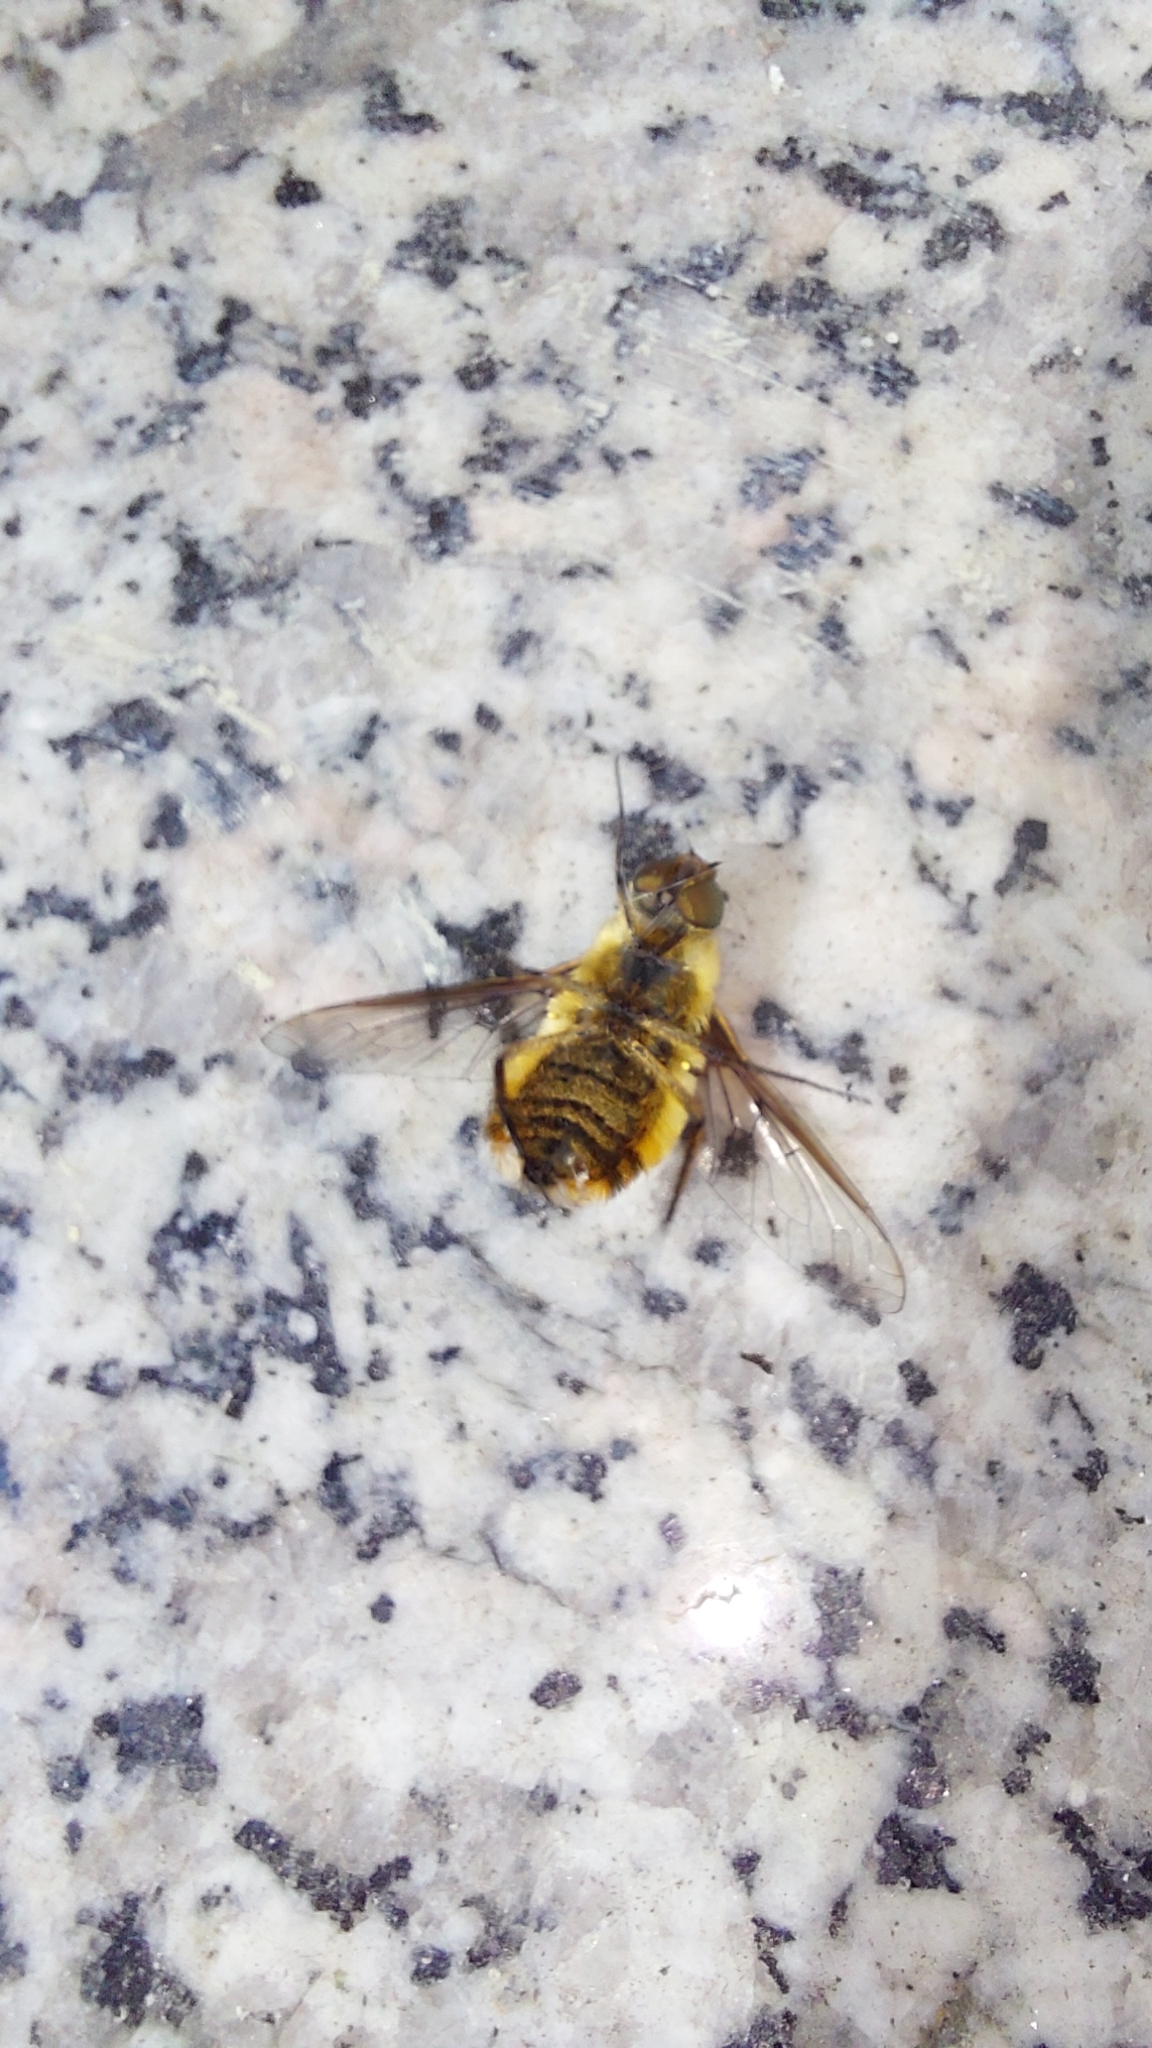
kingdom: Animalia
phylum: Arthropoda
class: Insecta
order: Diptera
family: Bombyliidae
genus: Villa
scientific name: Villa hottentotta
